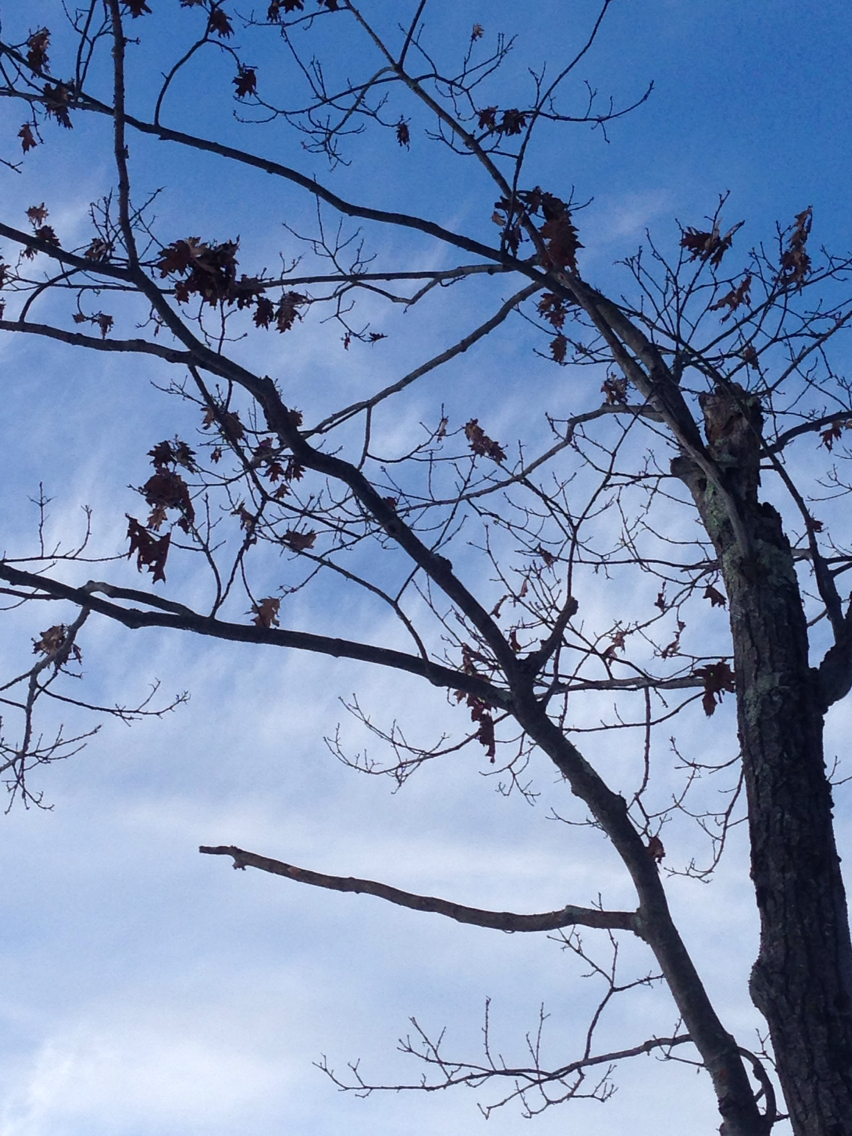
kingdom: Plantae
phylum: Tracheophyta
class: Magnoliopsida
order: Fagales
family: Fagaceae
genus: Quercus
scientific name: Quercus rubra
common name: Red oak
